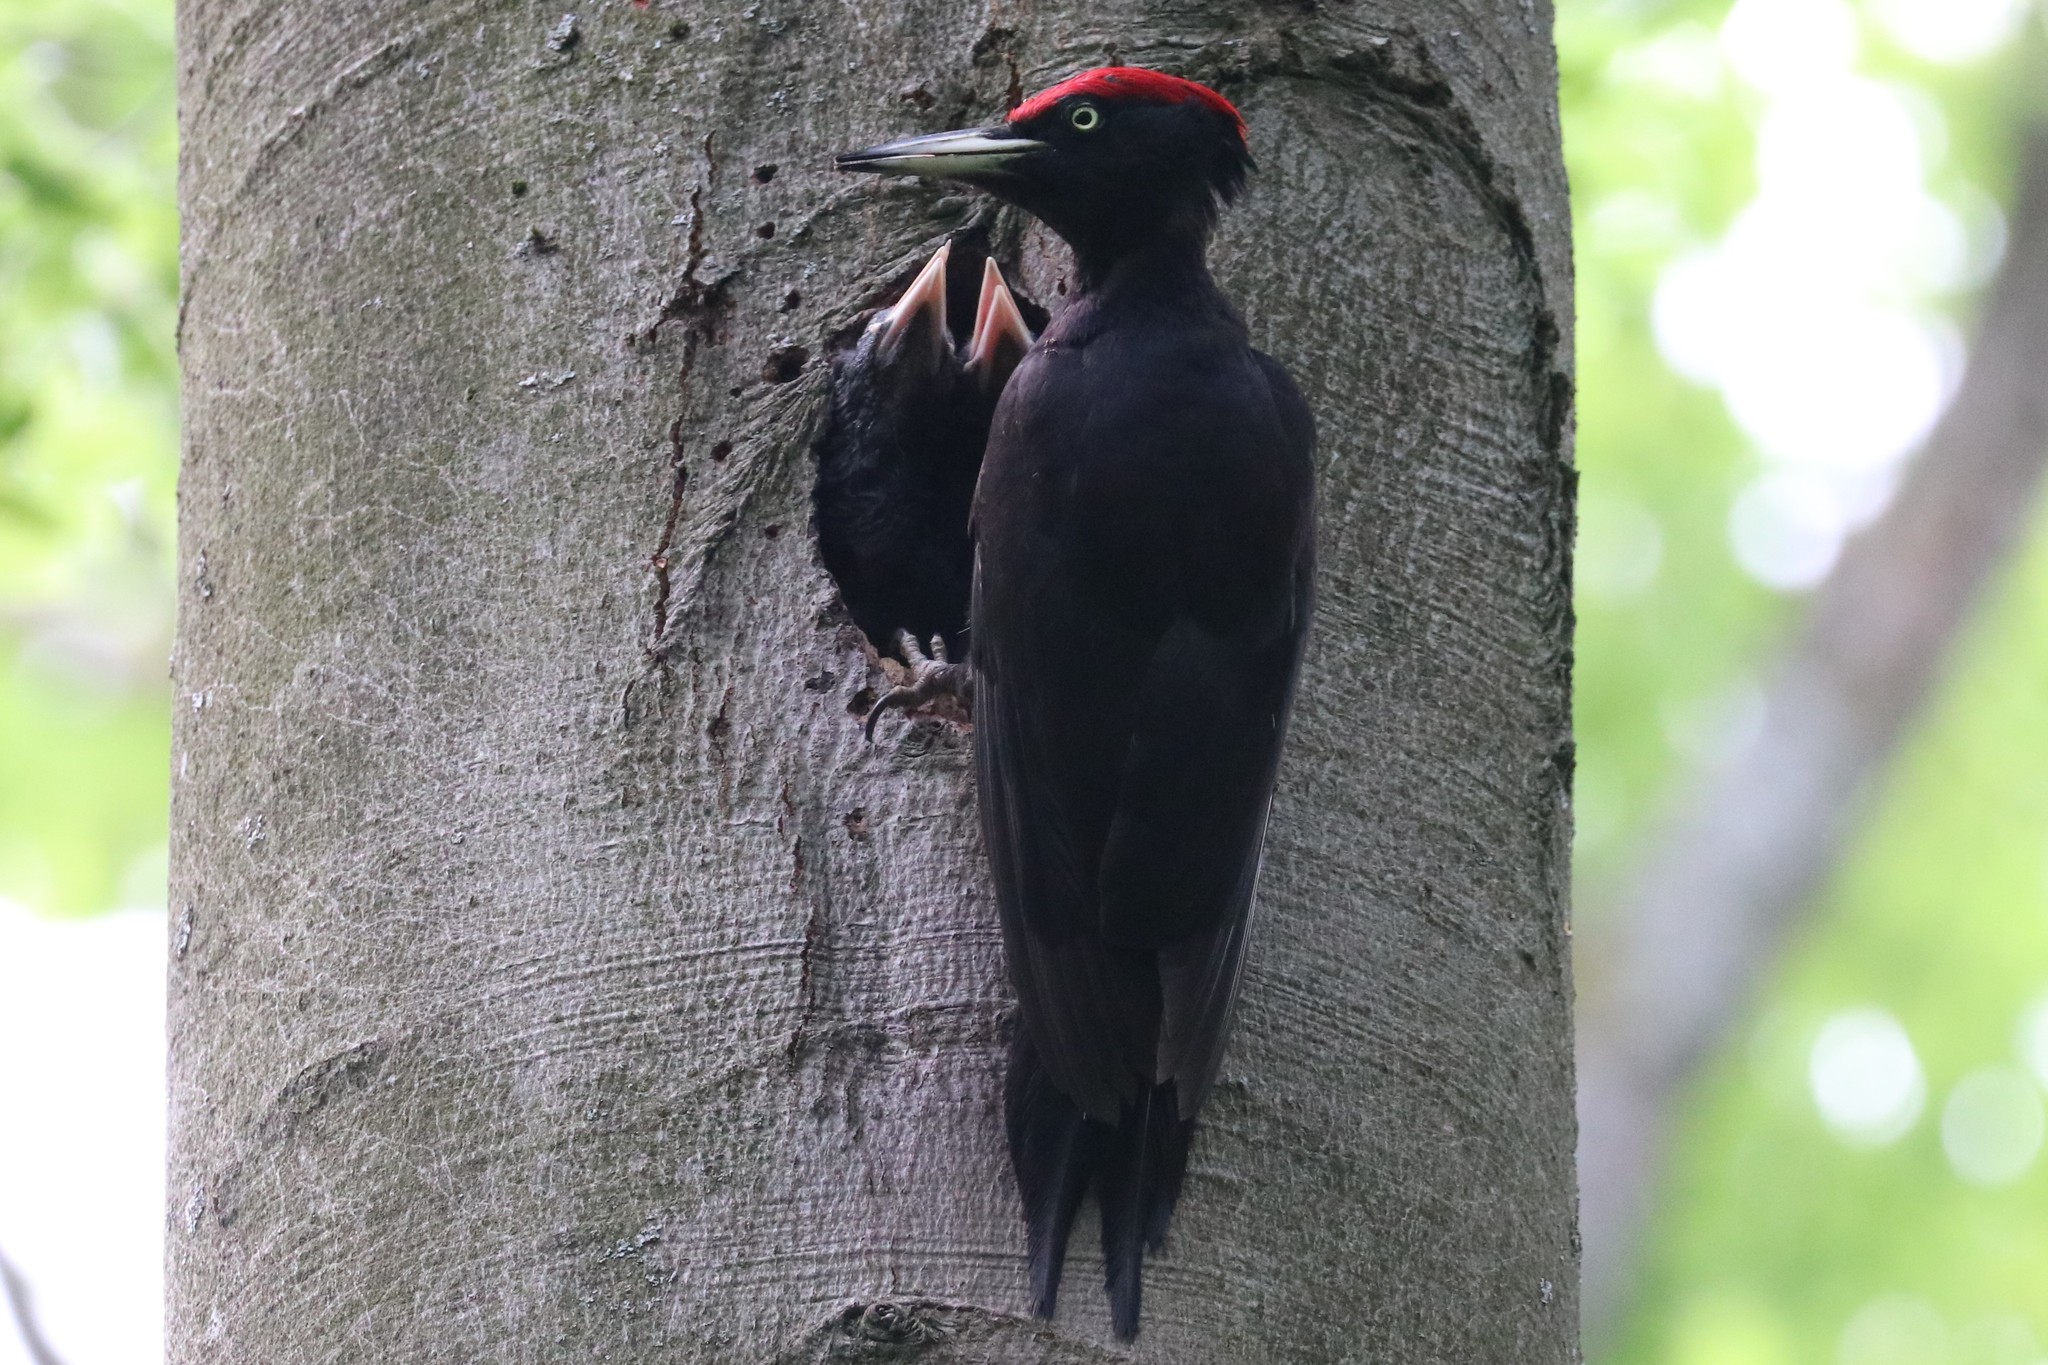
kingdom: Animalia
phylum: Chordata
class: Aves
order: Piciformes
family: Picidae
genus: Dryocopus
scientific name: Dryocopus martius
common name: Black woodpecker
